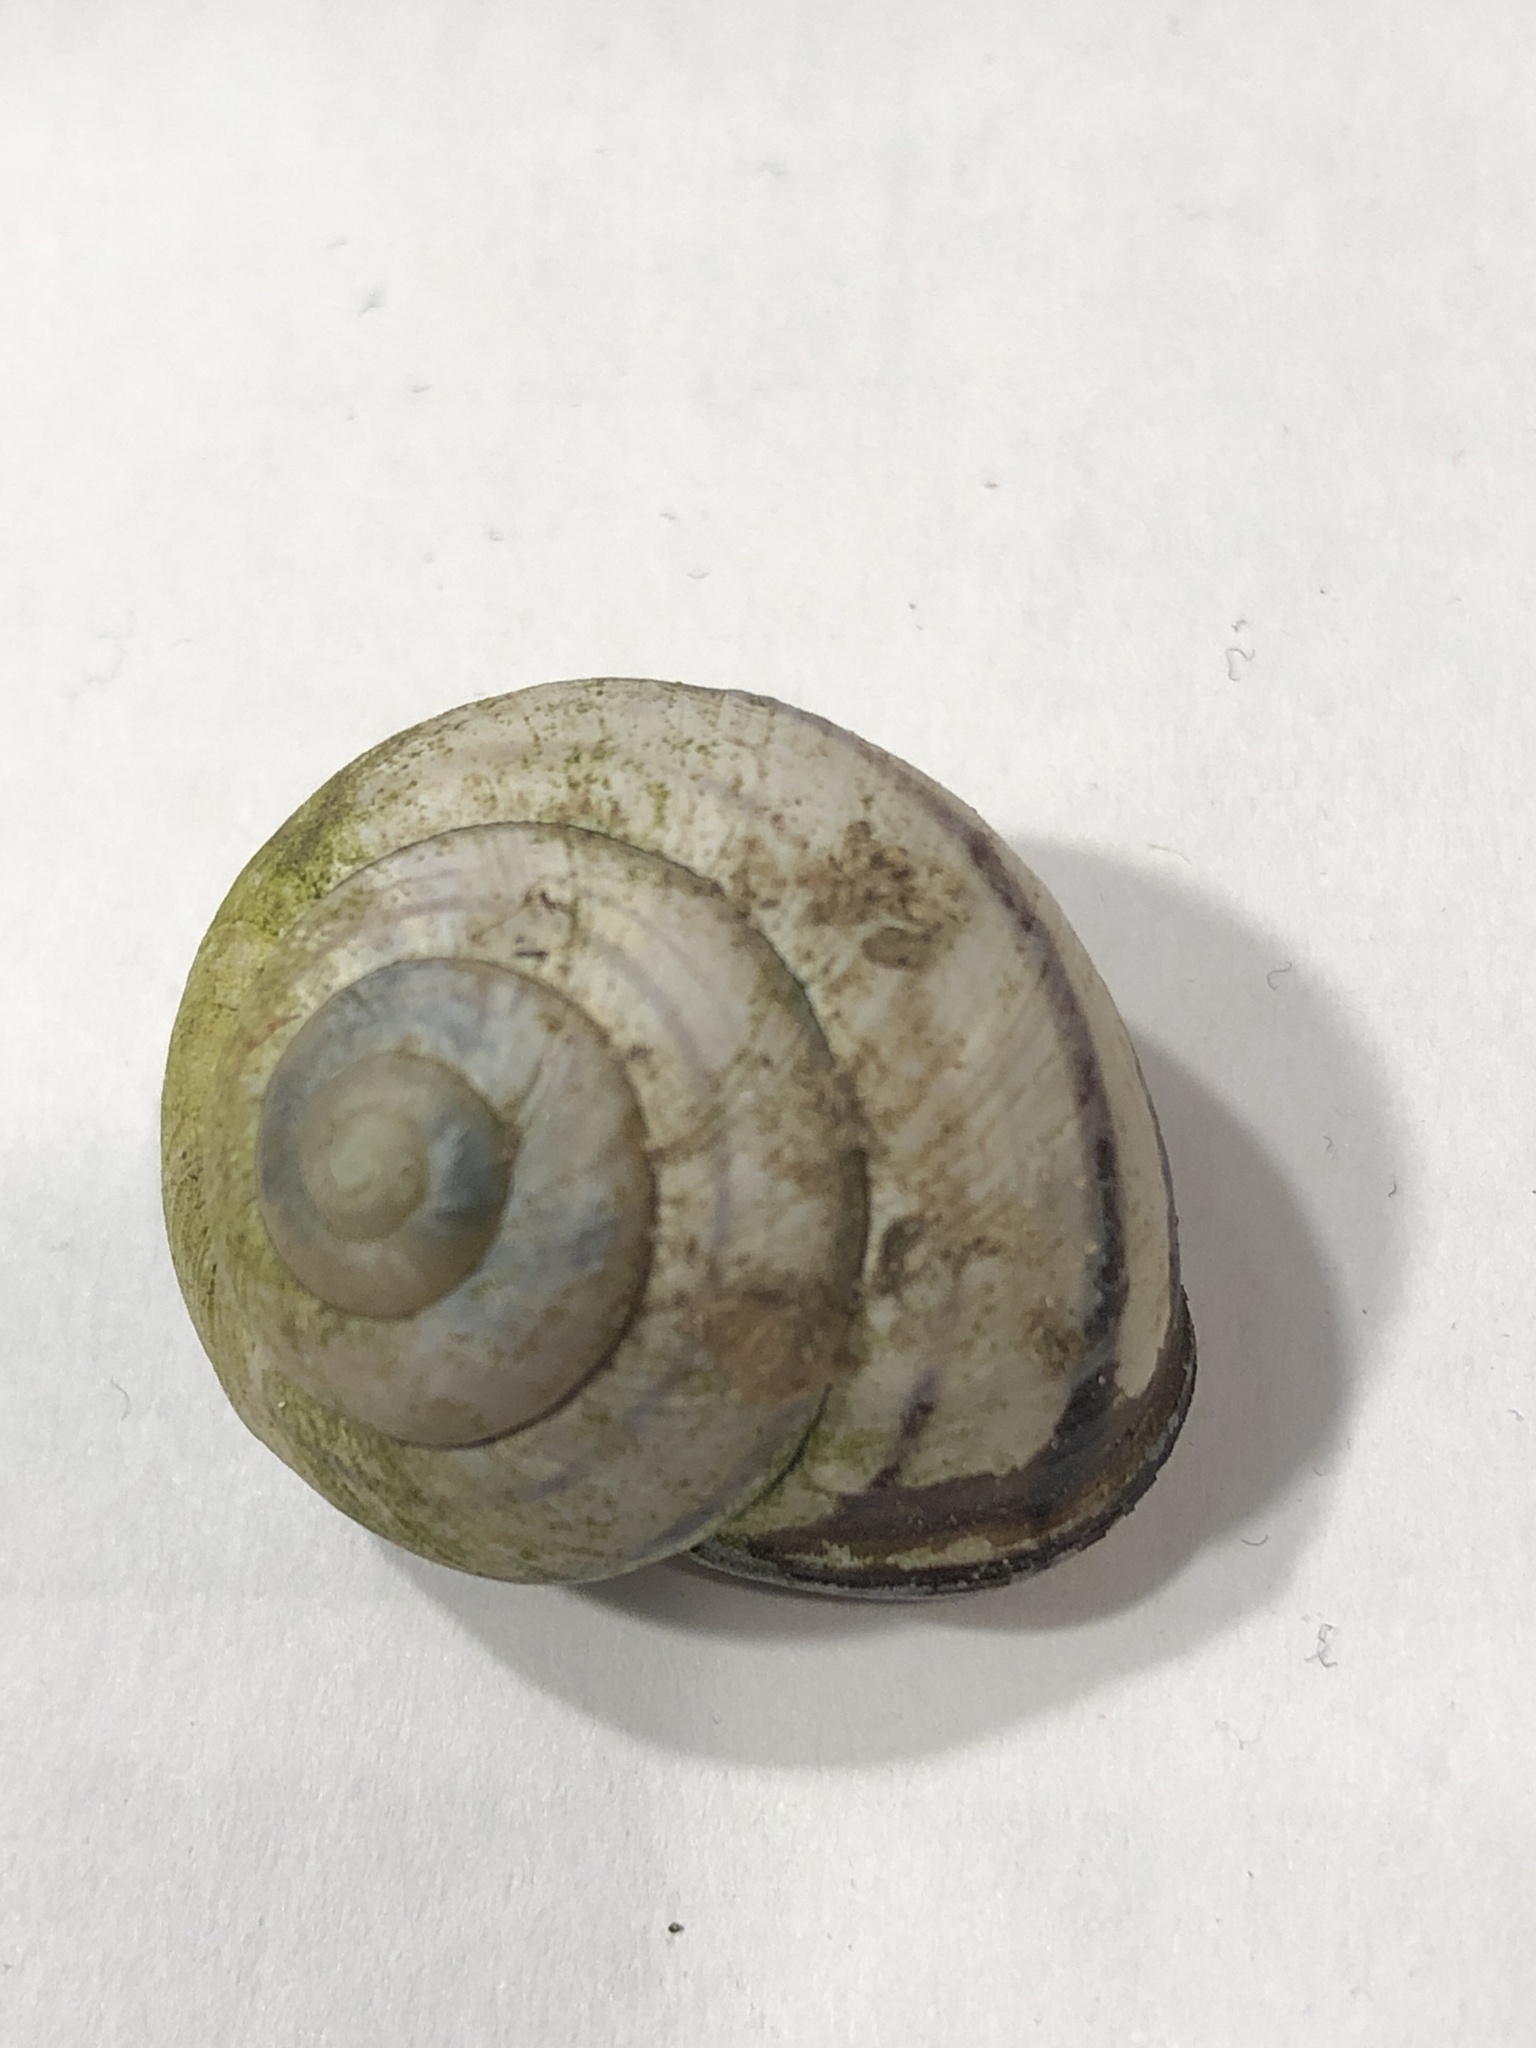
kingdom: Animalia
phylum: Mollusca
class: Gastropoda
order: Stylommatophora
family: Helicidae
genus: Cepaea
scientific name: Cepaea nemoralis
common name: Grovesnail
